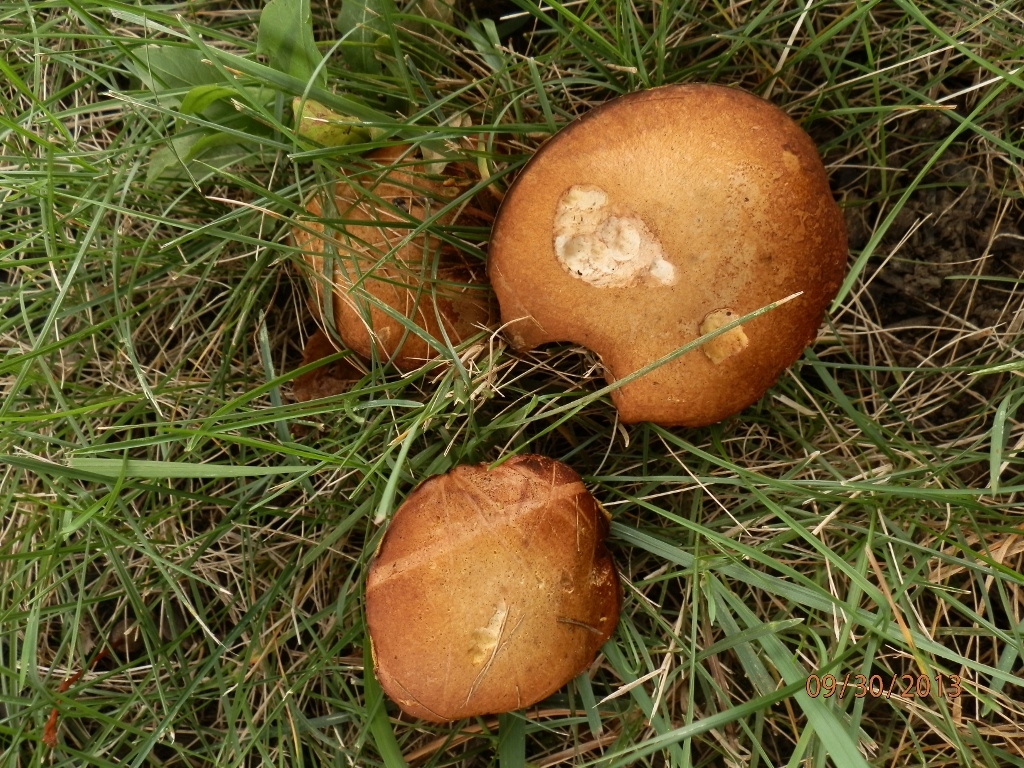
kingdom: Fungi
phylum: Basidiomycota
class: Agaricomycetes
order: Boletales
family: Suillaceae
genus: Fuscoboletinus
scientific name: Fuscoboletinus weaverae
